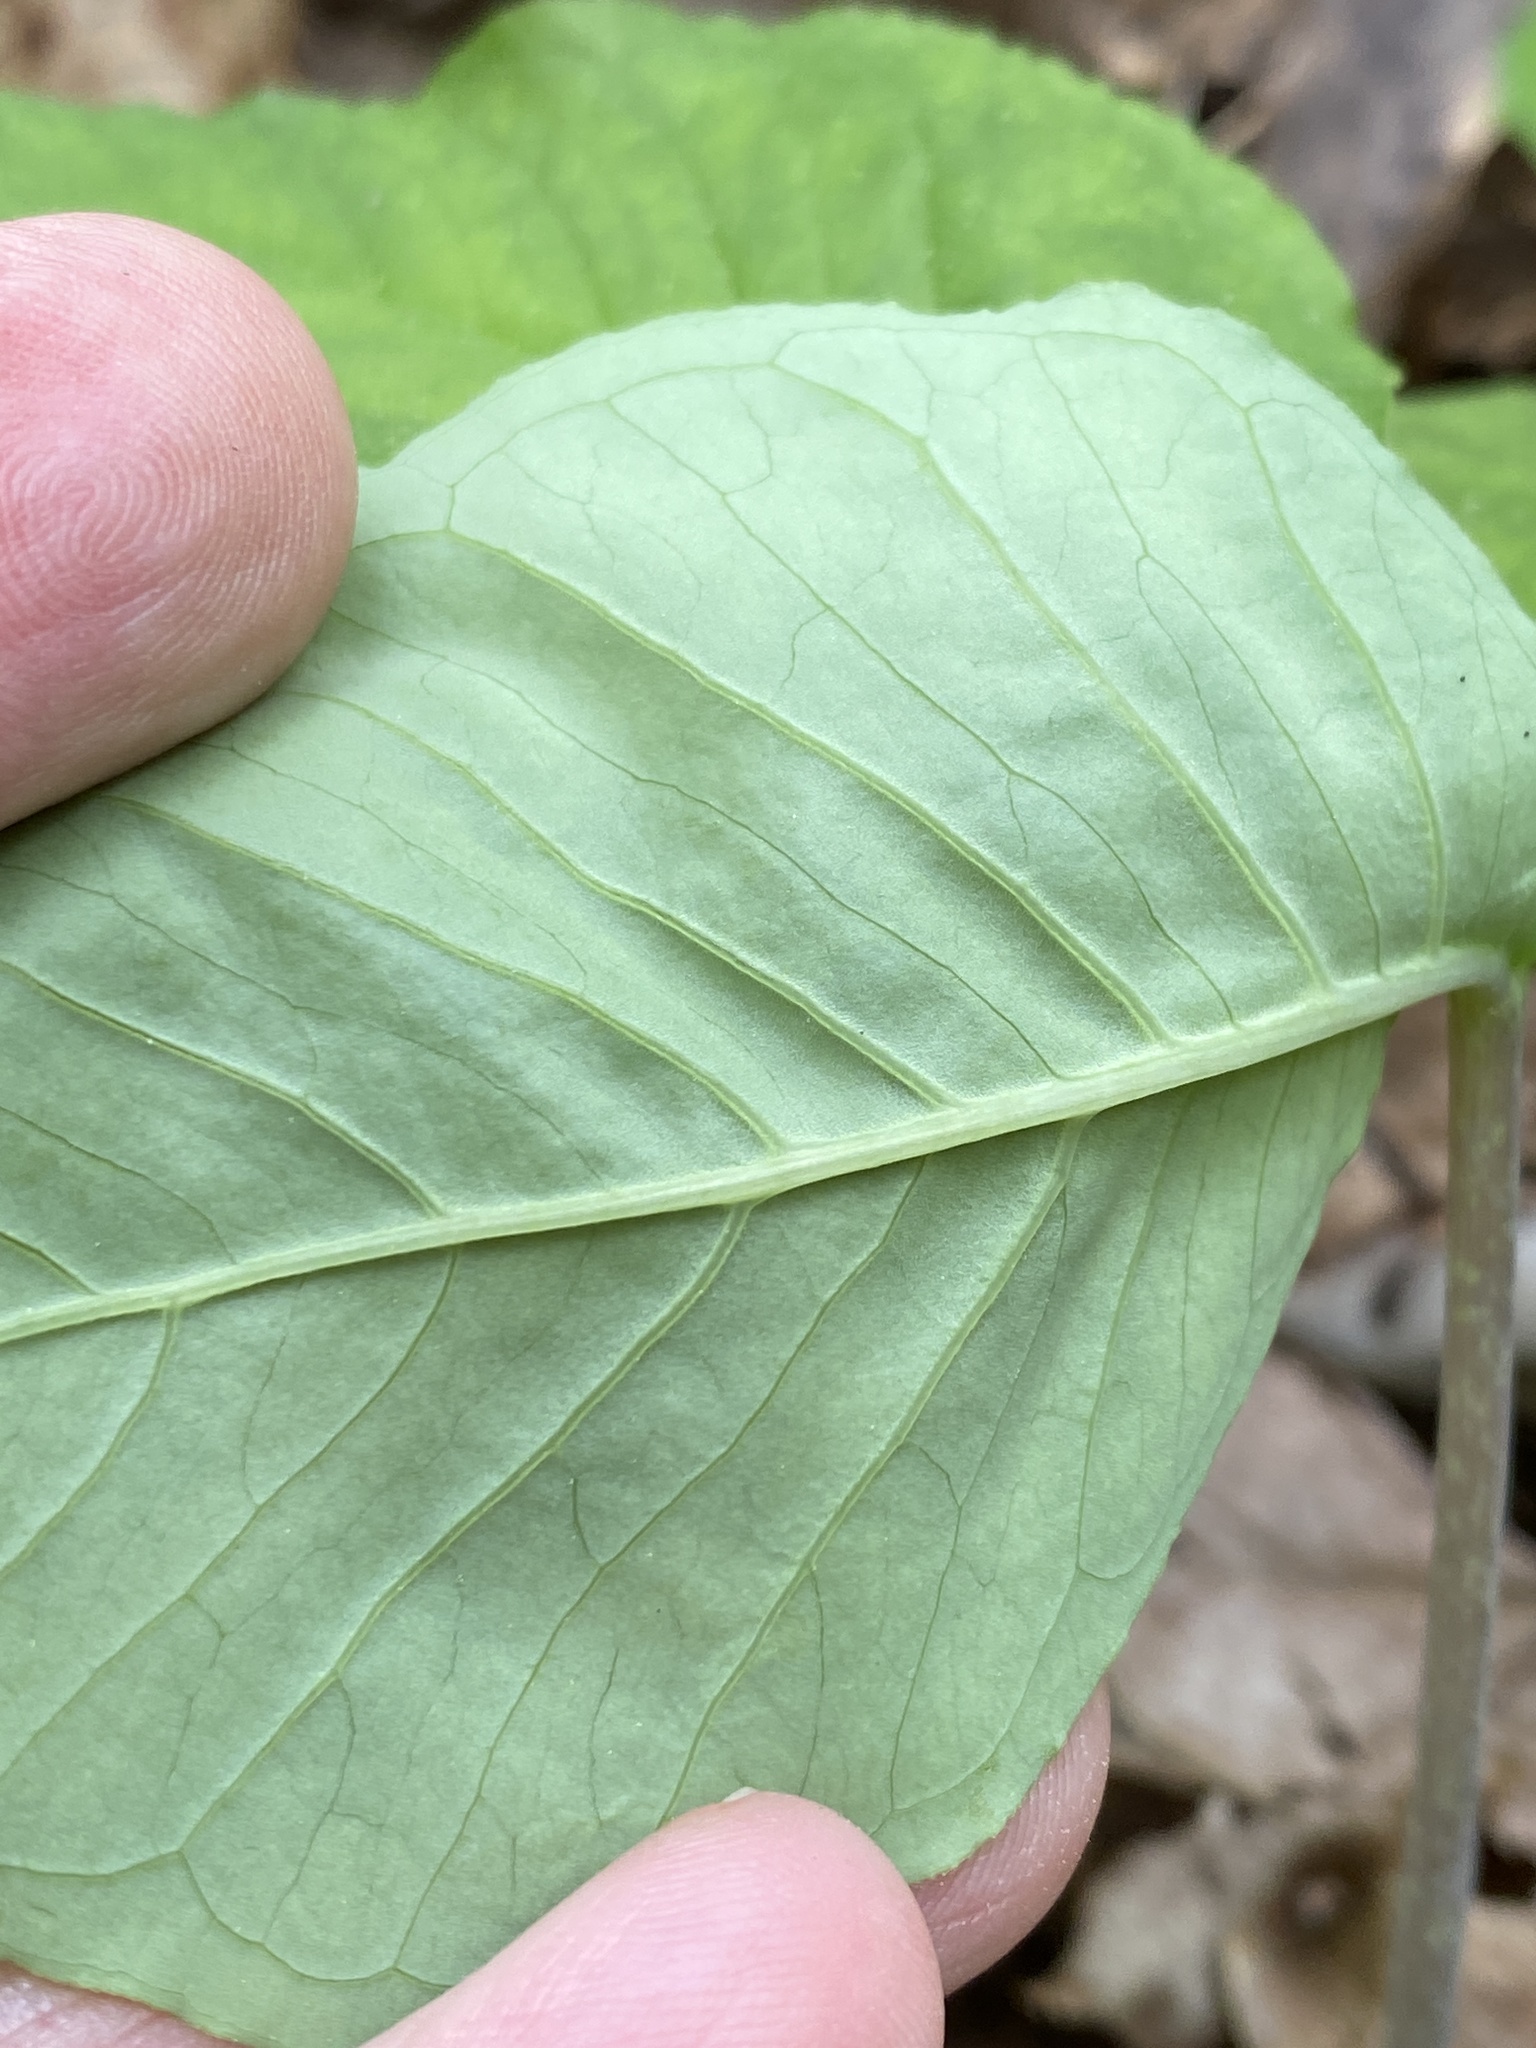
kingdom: Plantae
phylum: Tracheophyta
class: Liliopsida
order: Alismatales
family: Araceae
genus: Arisaema
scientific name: Arisaema triphyllum
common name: Jack-in-the-pulpit
